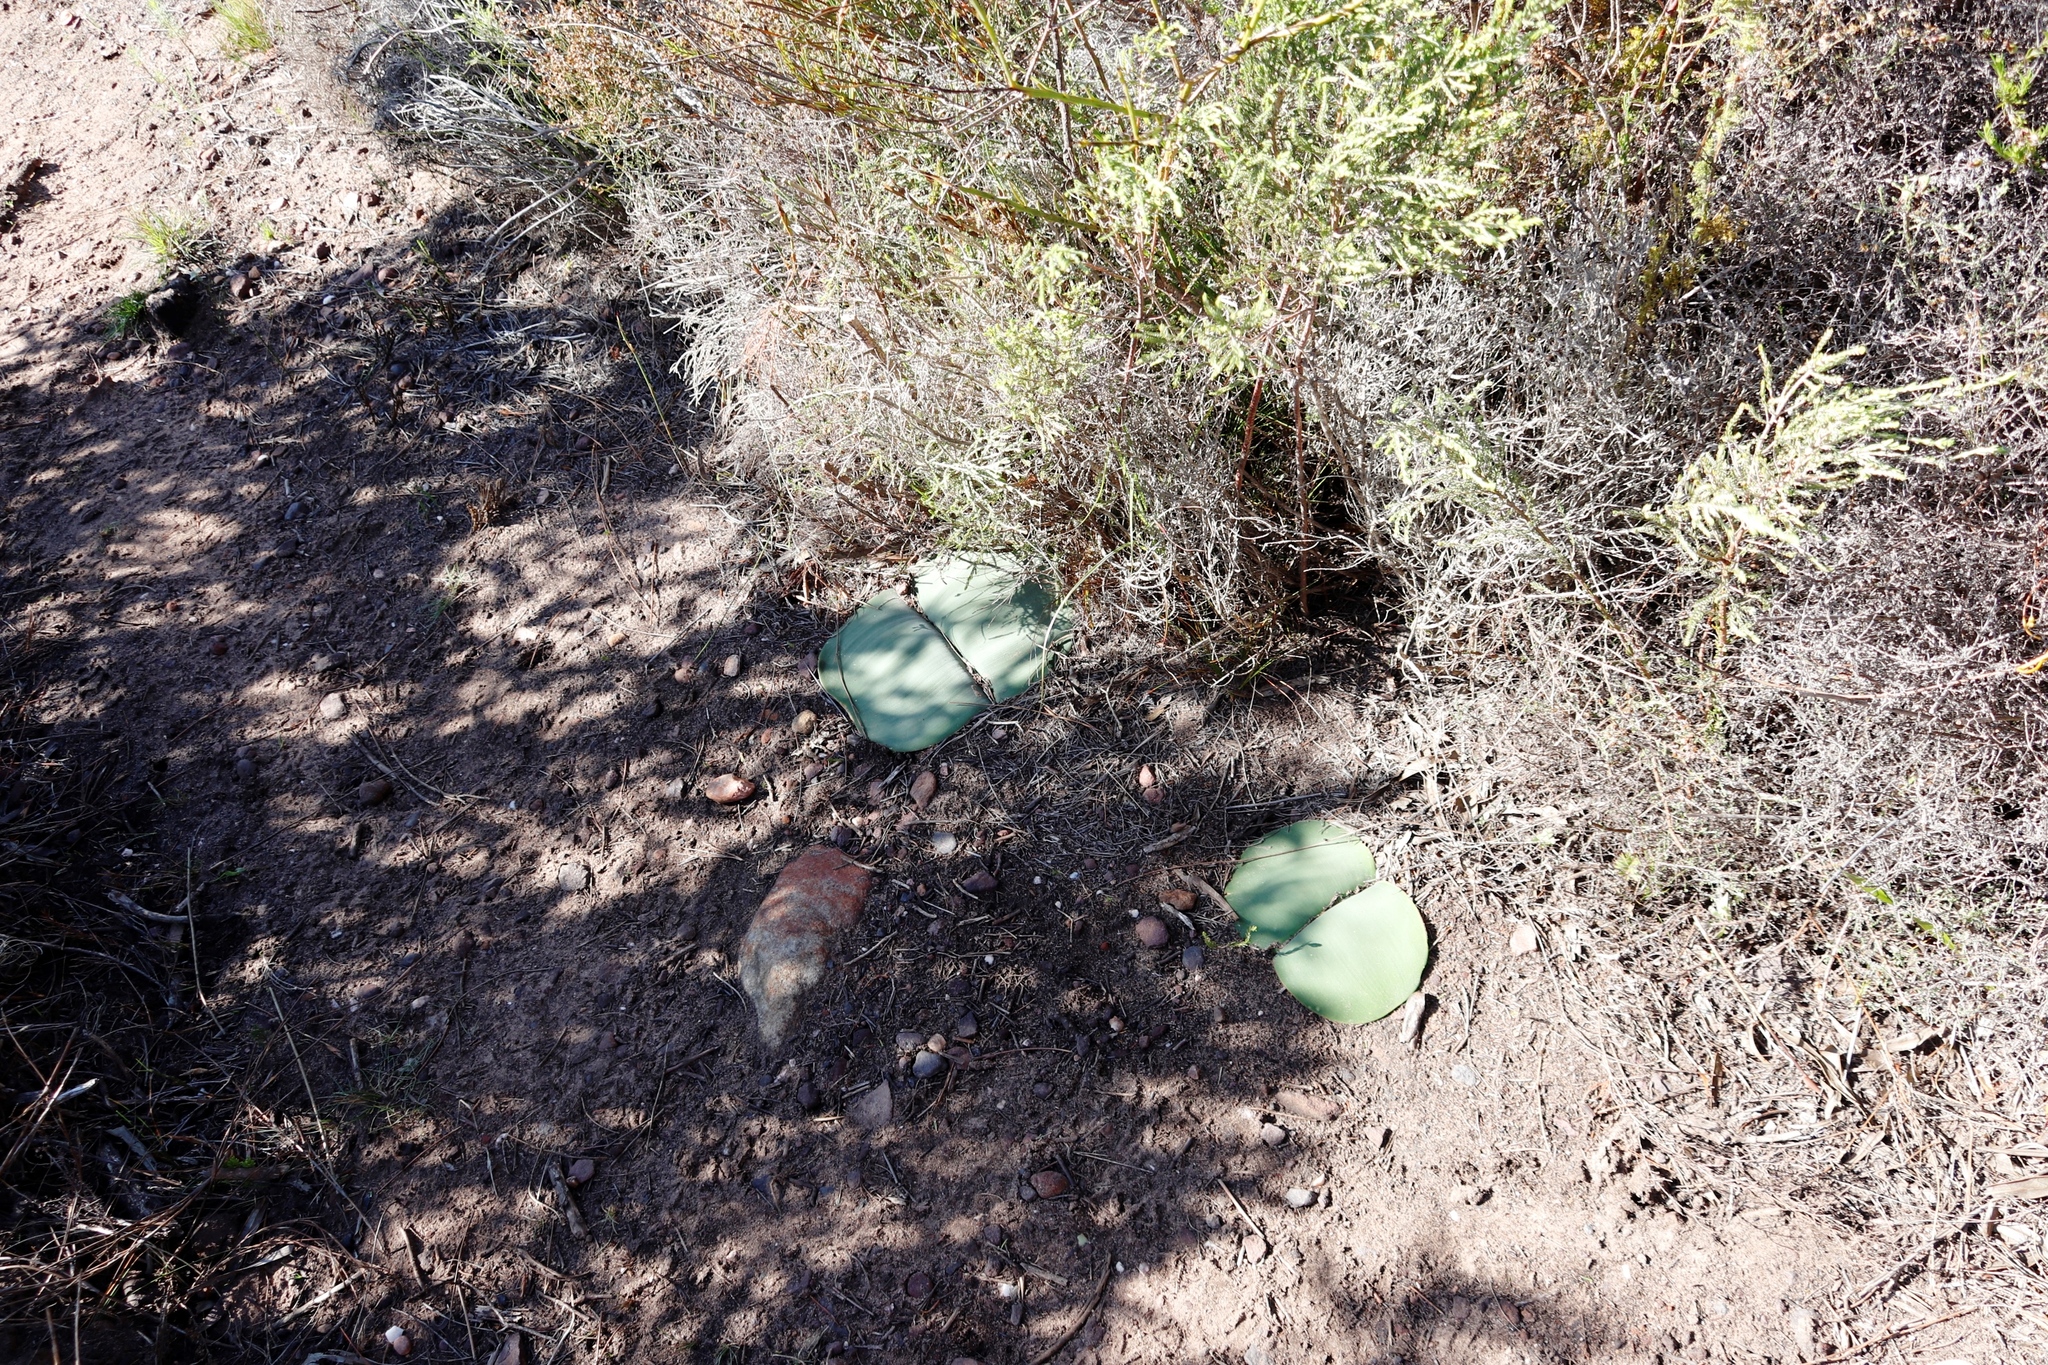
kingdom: Plantae
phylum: Tracheophyta
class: Liliopsida
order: Asparagales
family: Amaryllidaceae
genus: Haemanthus
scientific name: Haemanthus sanguineus
